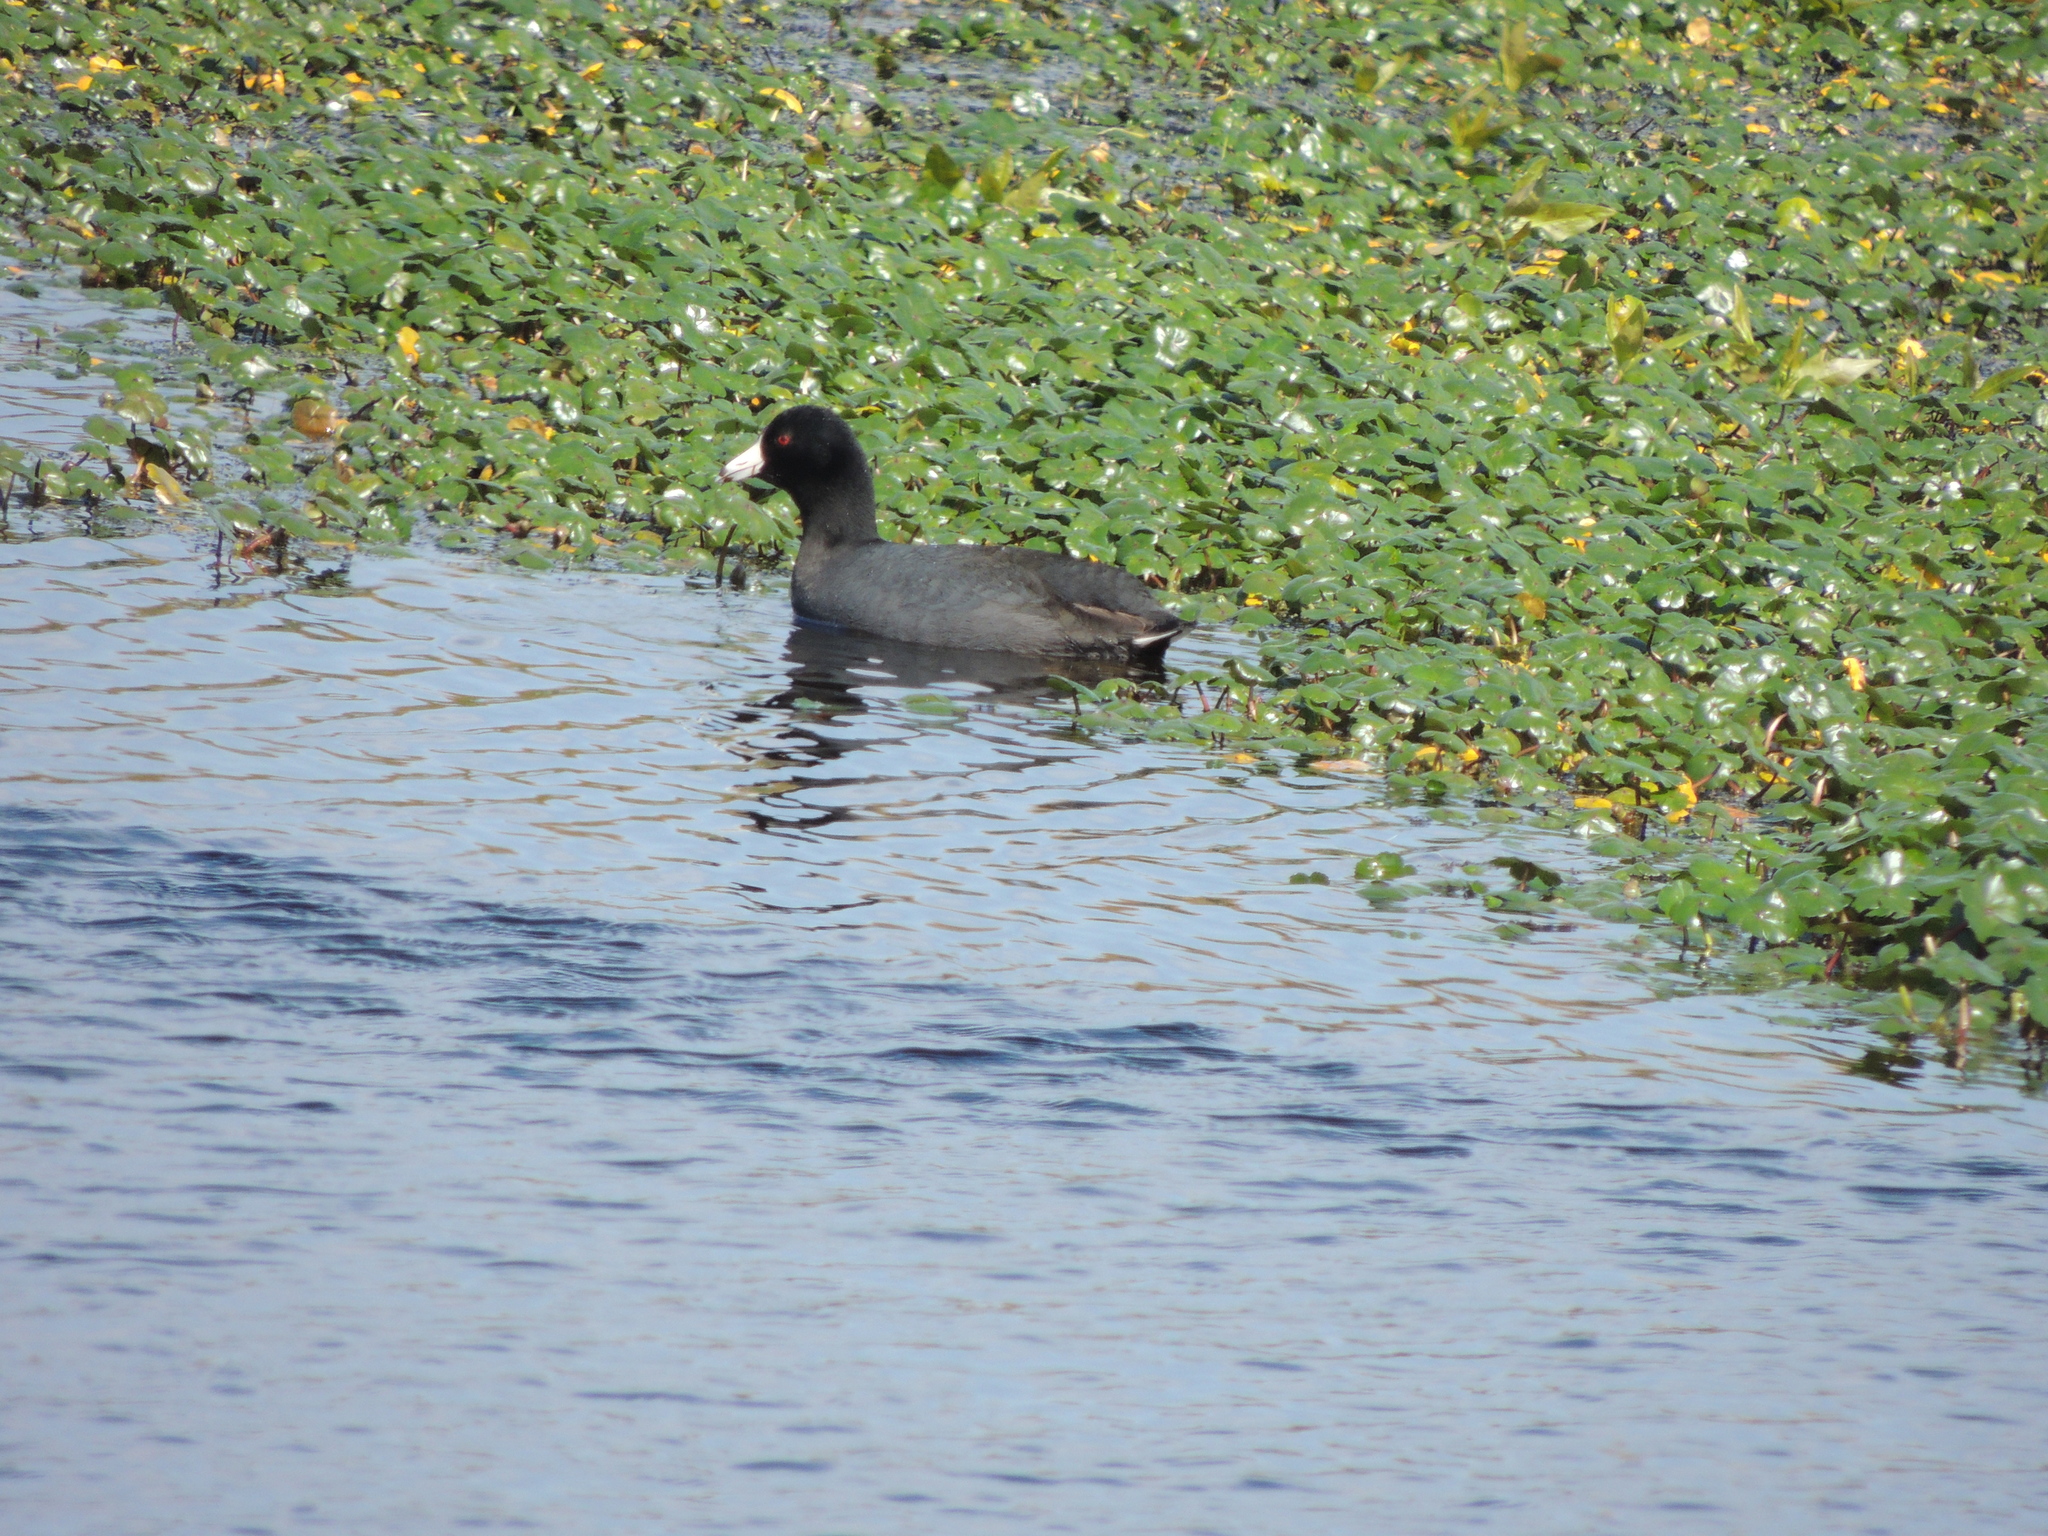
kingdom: Animalia
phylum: Chordata
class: Aves
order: Gruiformes
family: Rallidae
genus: Fulica
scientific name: Fulica americana
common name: American coot
